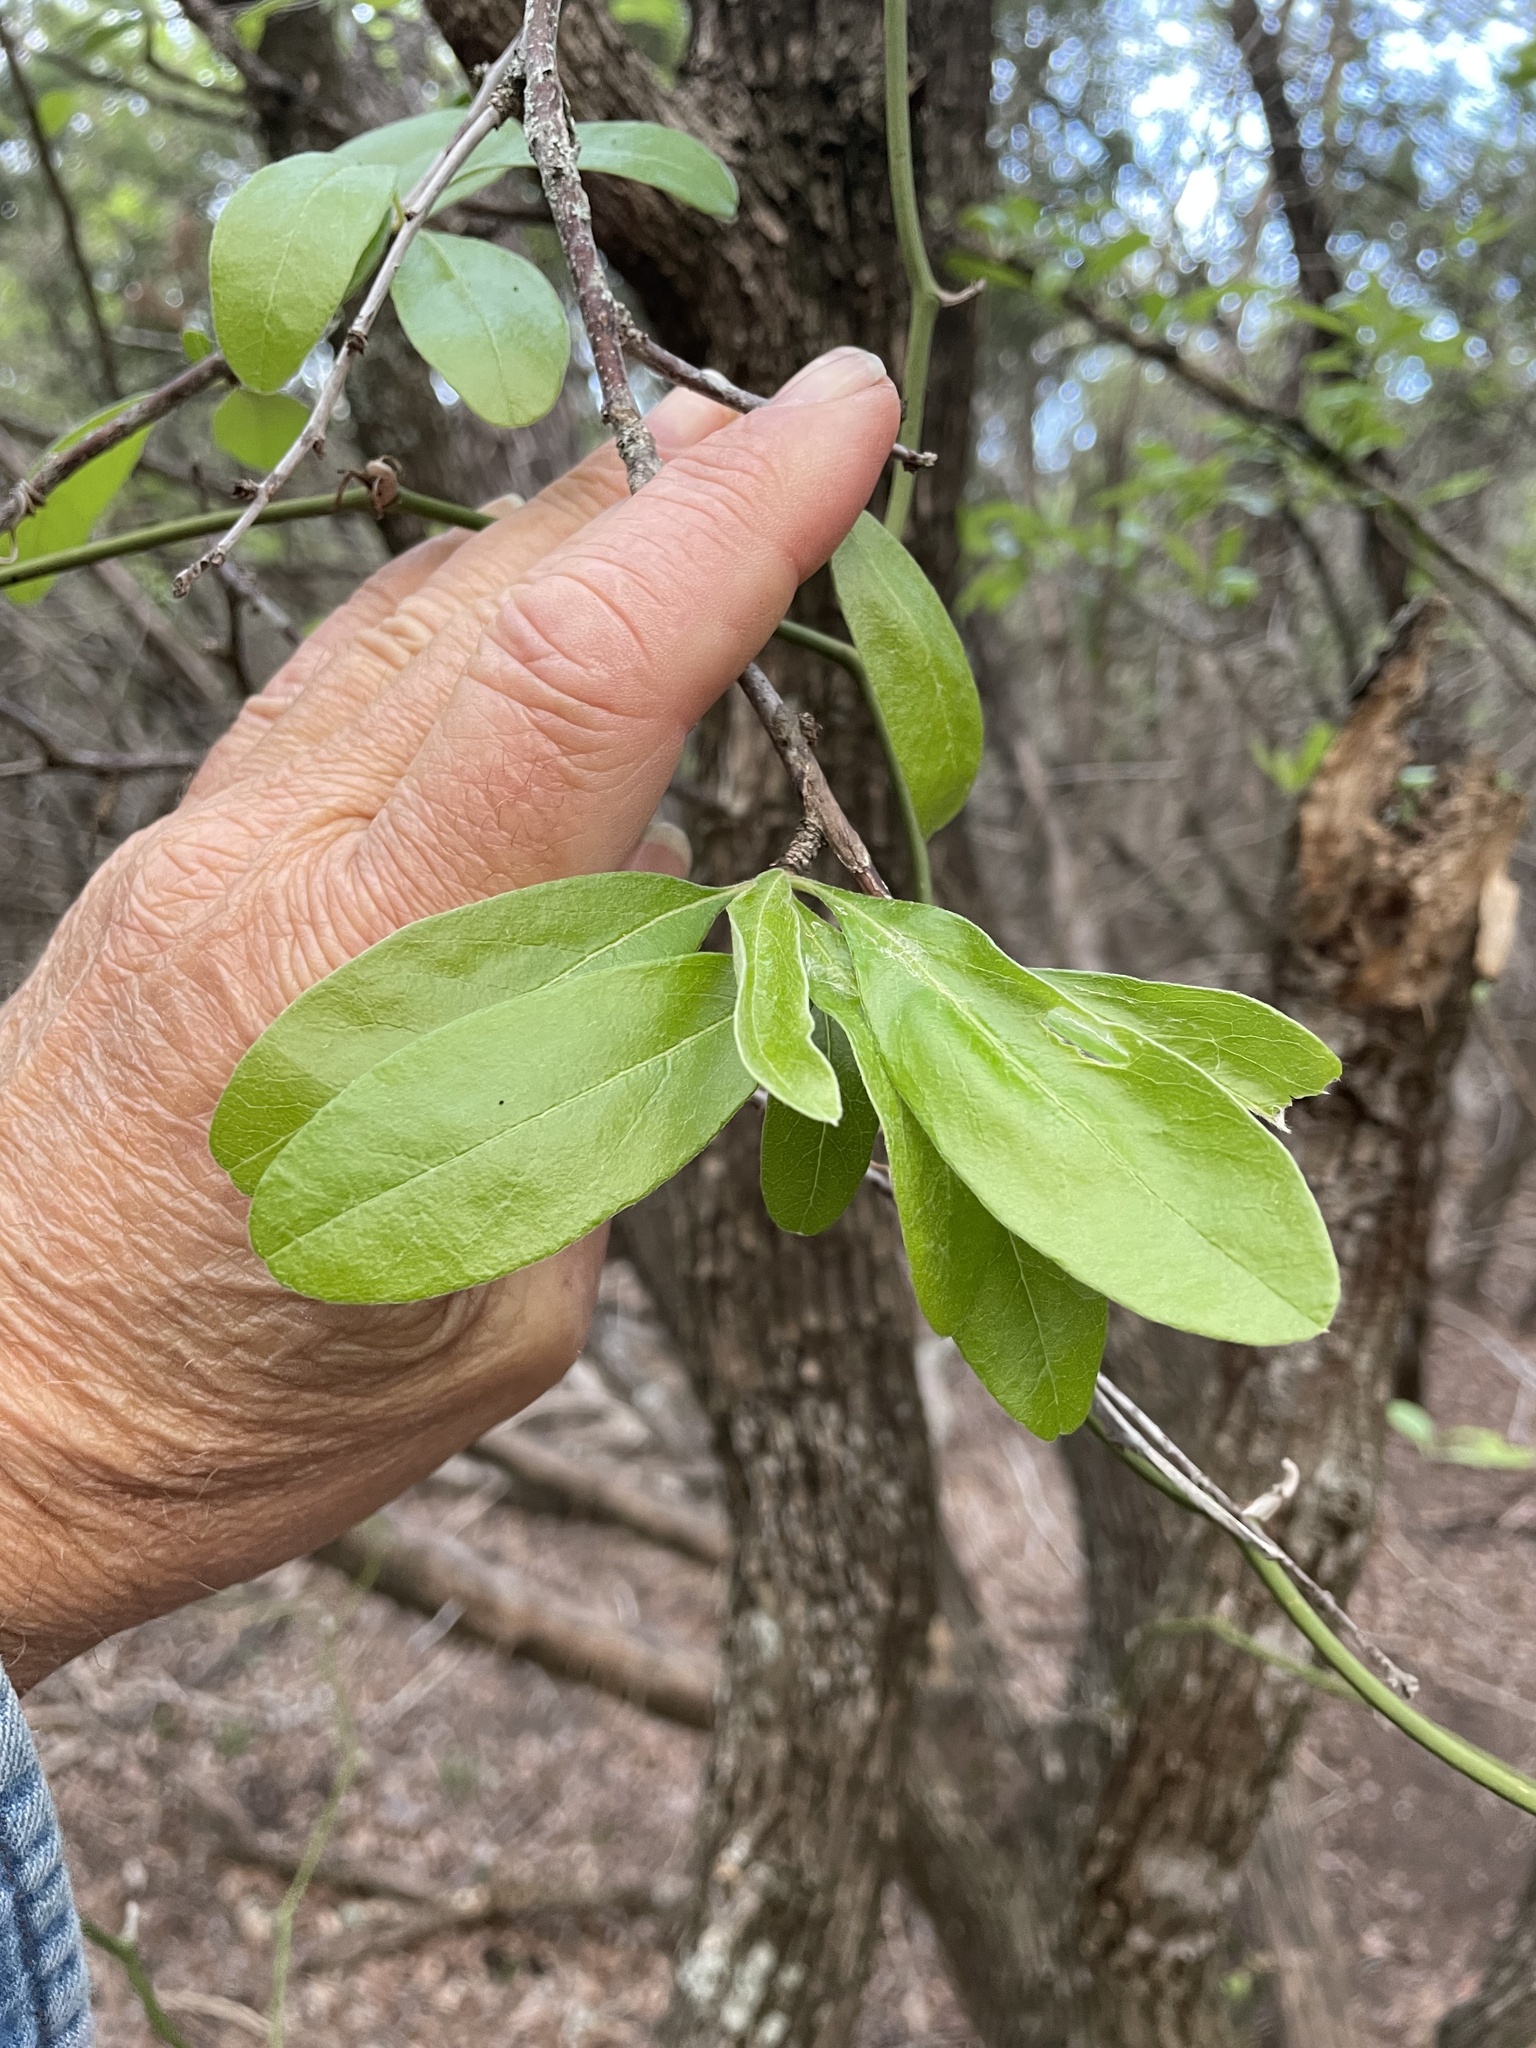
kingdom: Plantae
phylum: Tracheophyta
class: Magnoliopsida
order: Ericales
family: Sapotaceae
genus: Sideroxylon
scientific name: Sideroxylon lanuginosum
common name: Chittamwood
